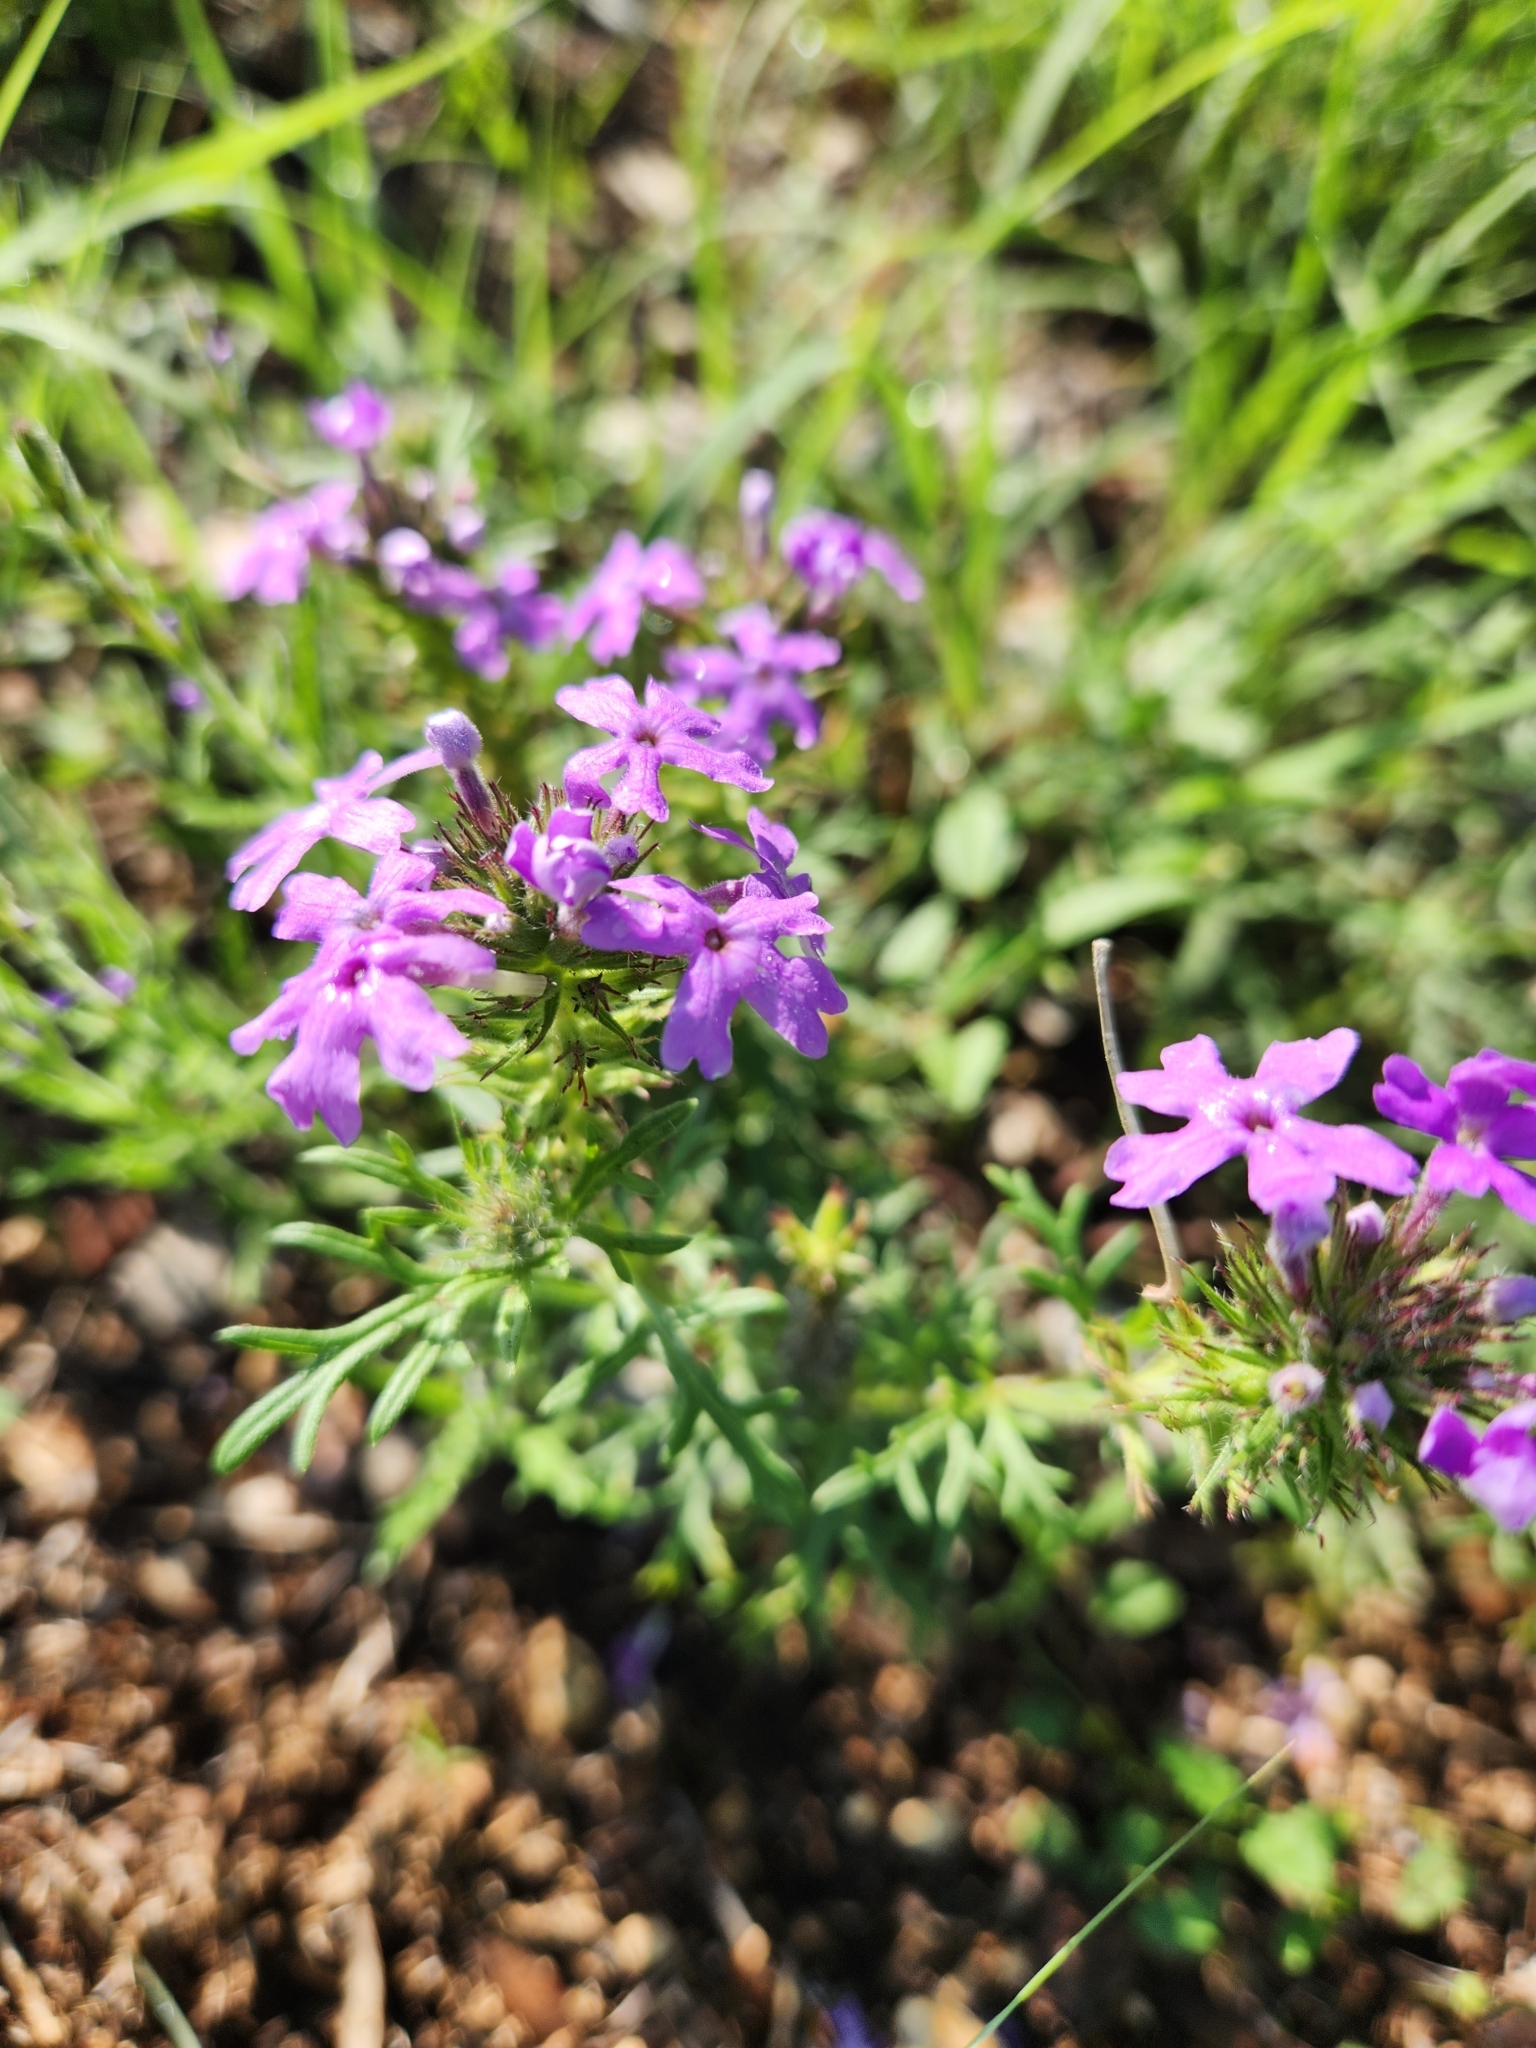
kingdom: Plantae
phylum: Tracheophyta
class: Magnoliopsida
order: Lamiales
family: Verbenaceae
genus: Verbena
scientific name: Verbena bipinnatifida
